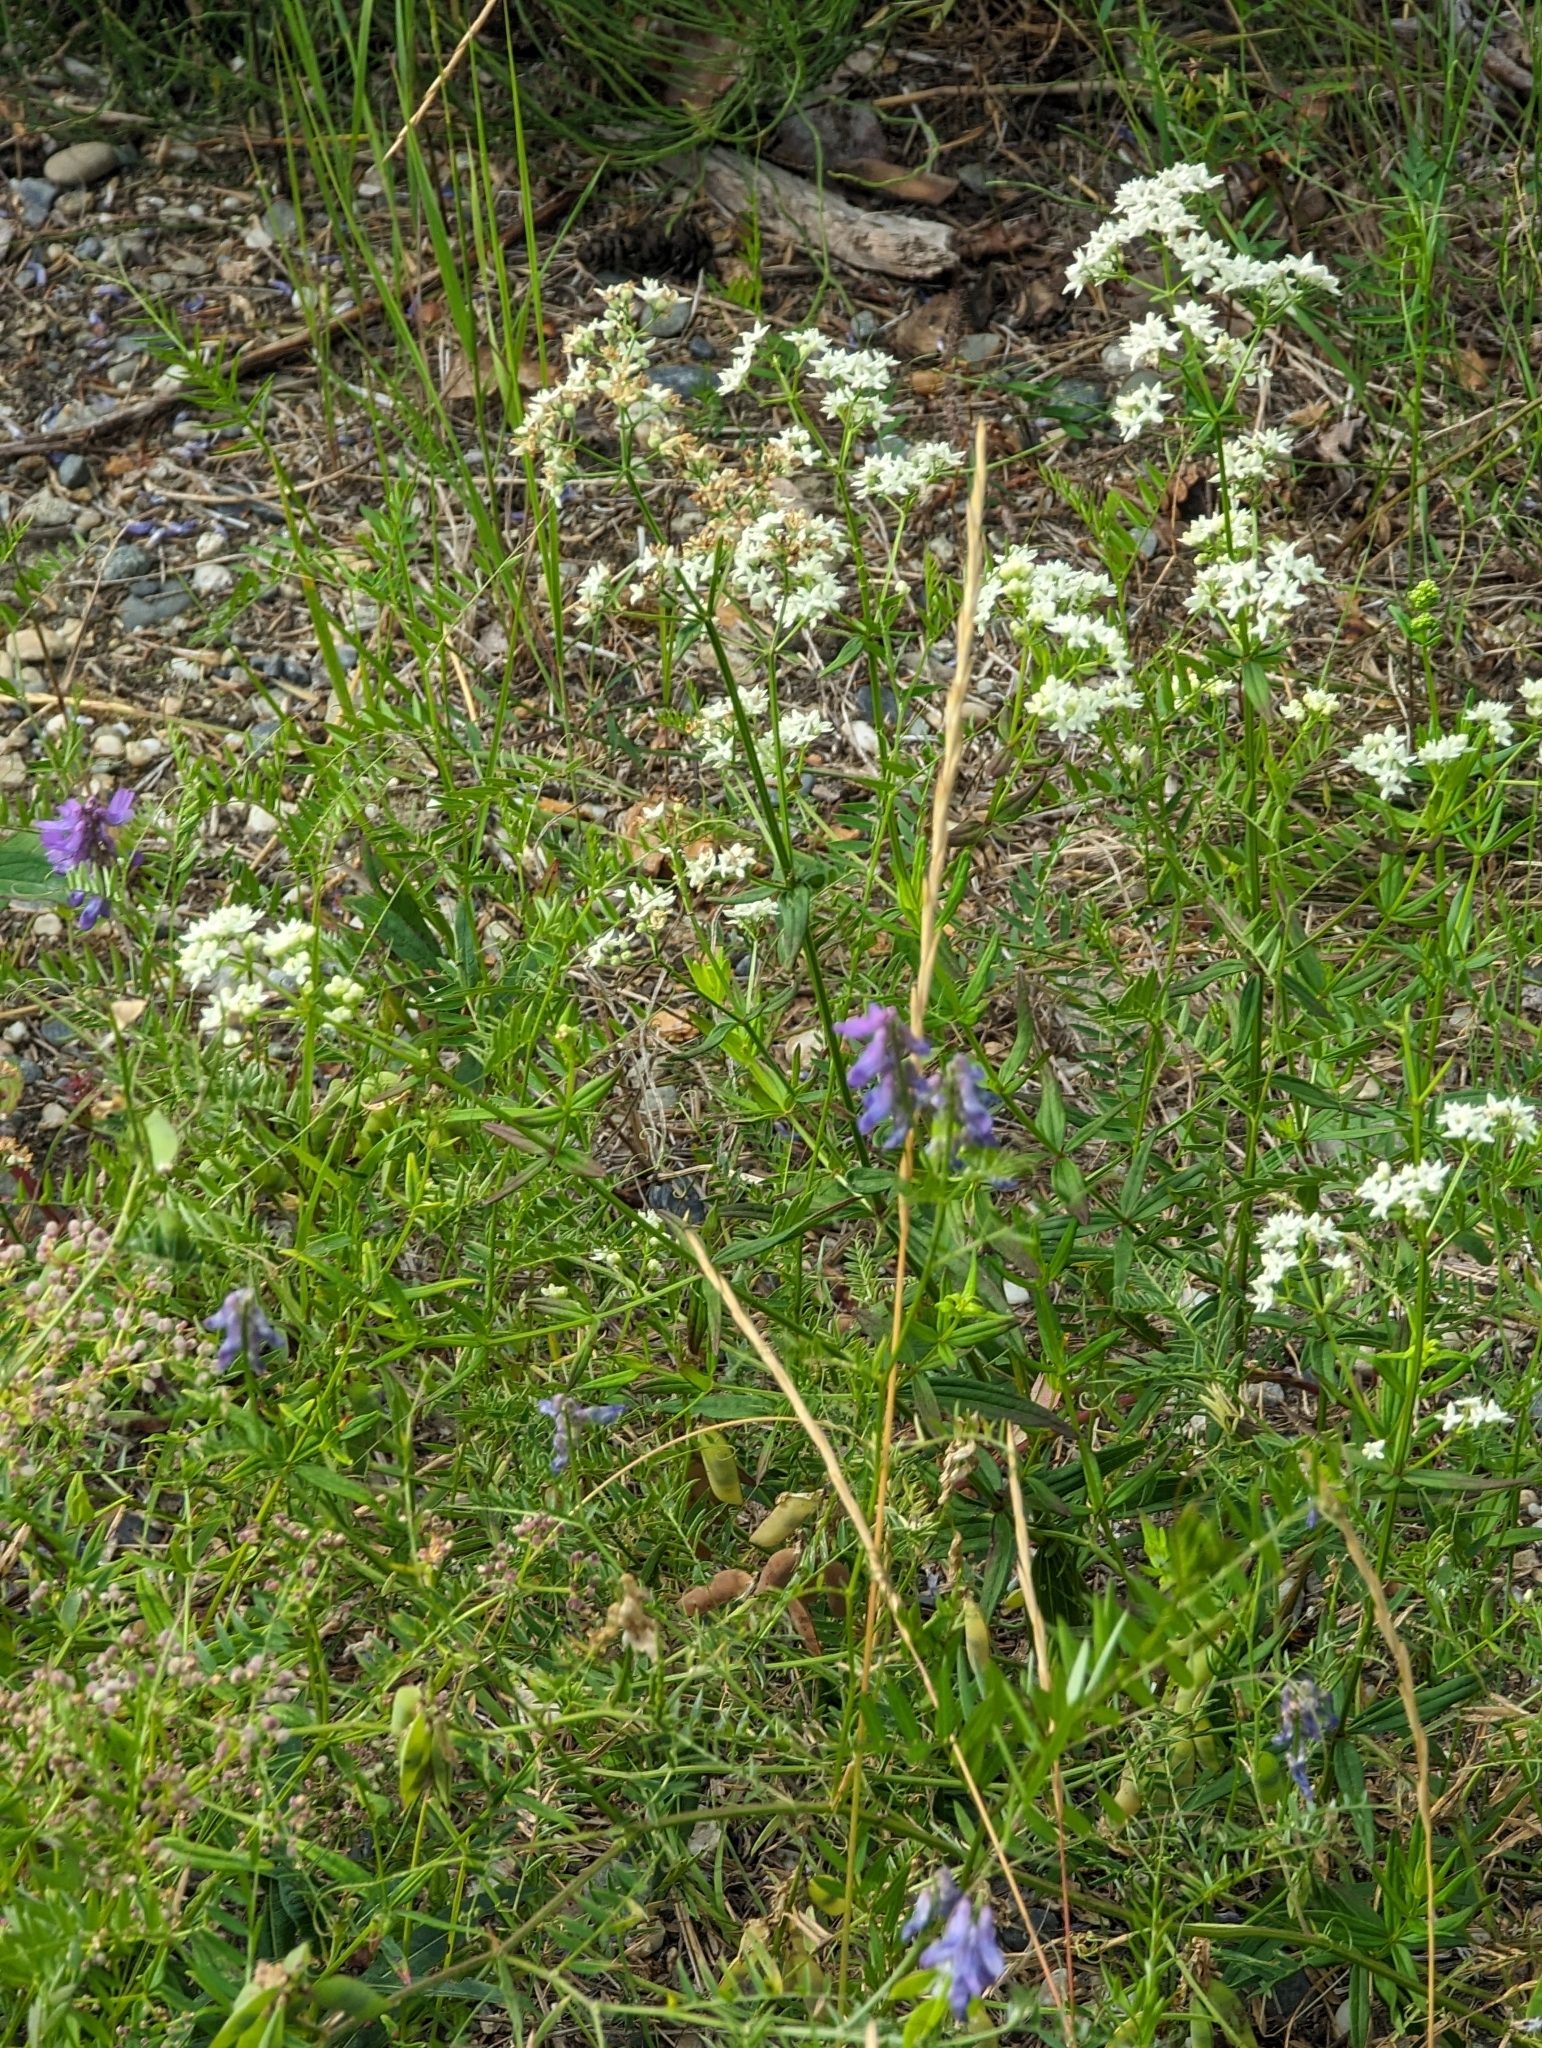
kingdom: Plantae
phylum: Tracheophyta
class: Magnoliopsida
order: Gentianales
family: Rubiaceae
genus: Galium
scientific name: Galium boreale
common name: Northern bedstraw
